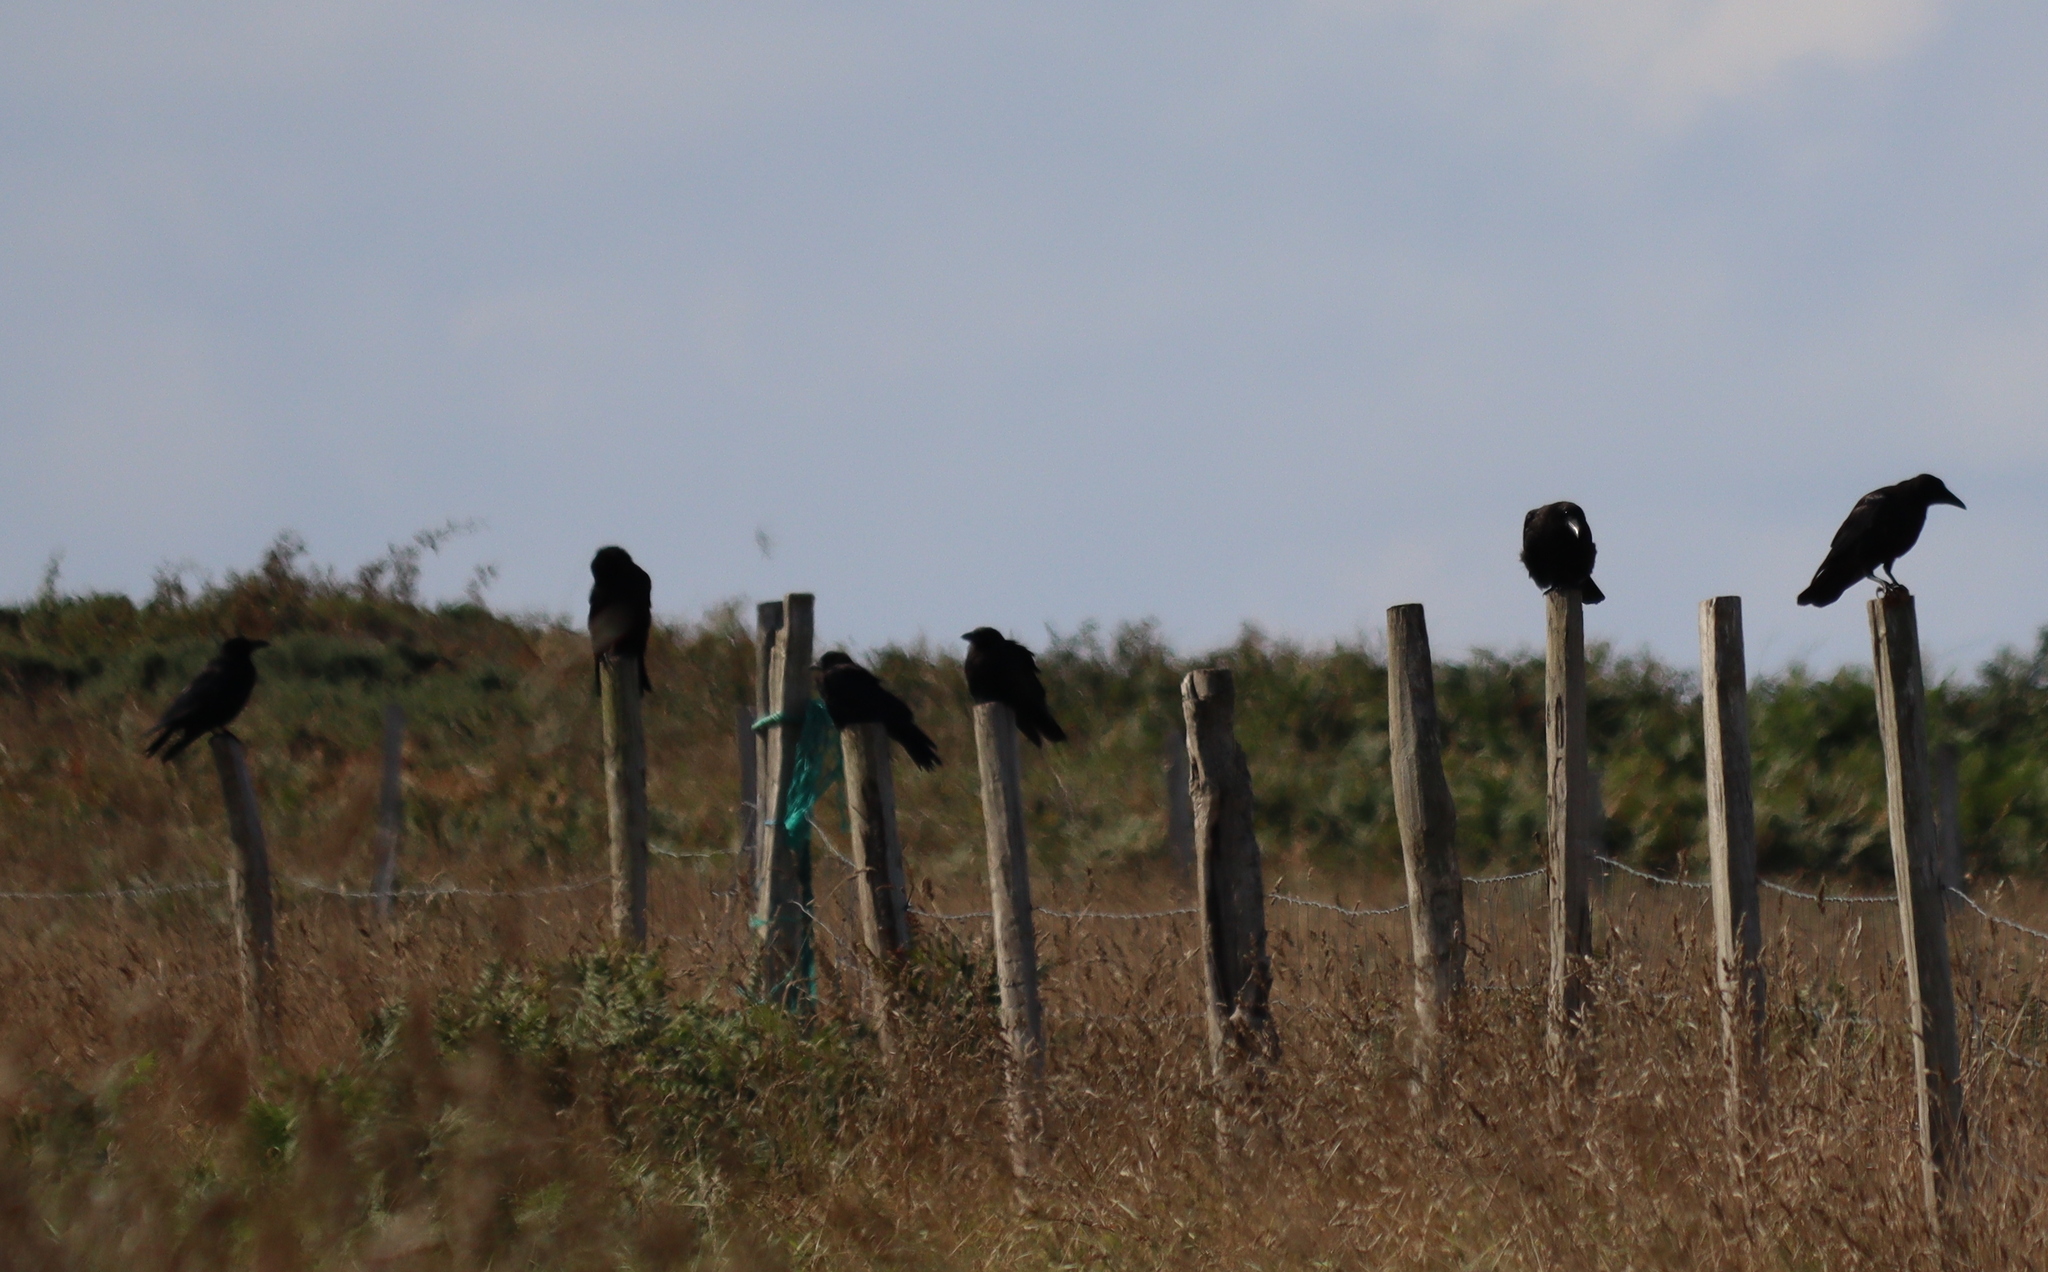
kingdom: Animalia
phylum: Chordata
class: Aves
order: Passeriformes
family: Corvidae
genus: Corvus
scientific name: Corvus corone
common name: Carrion crow
